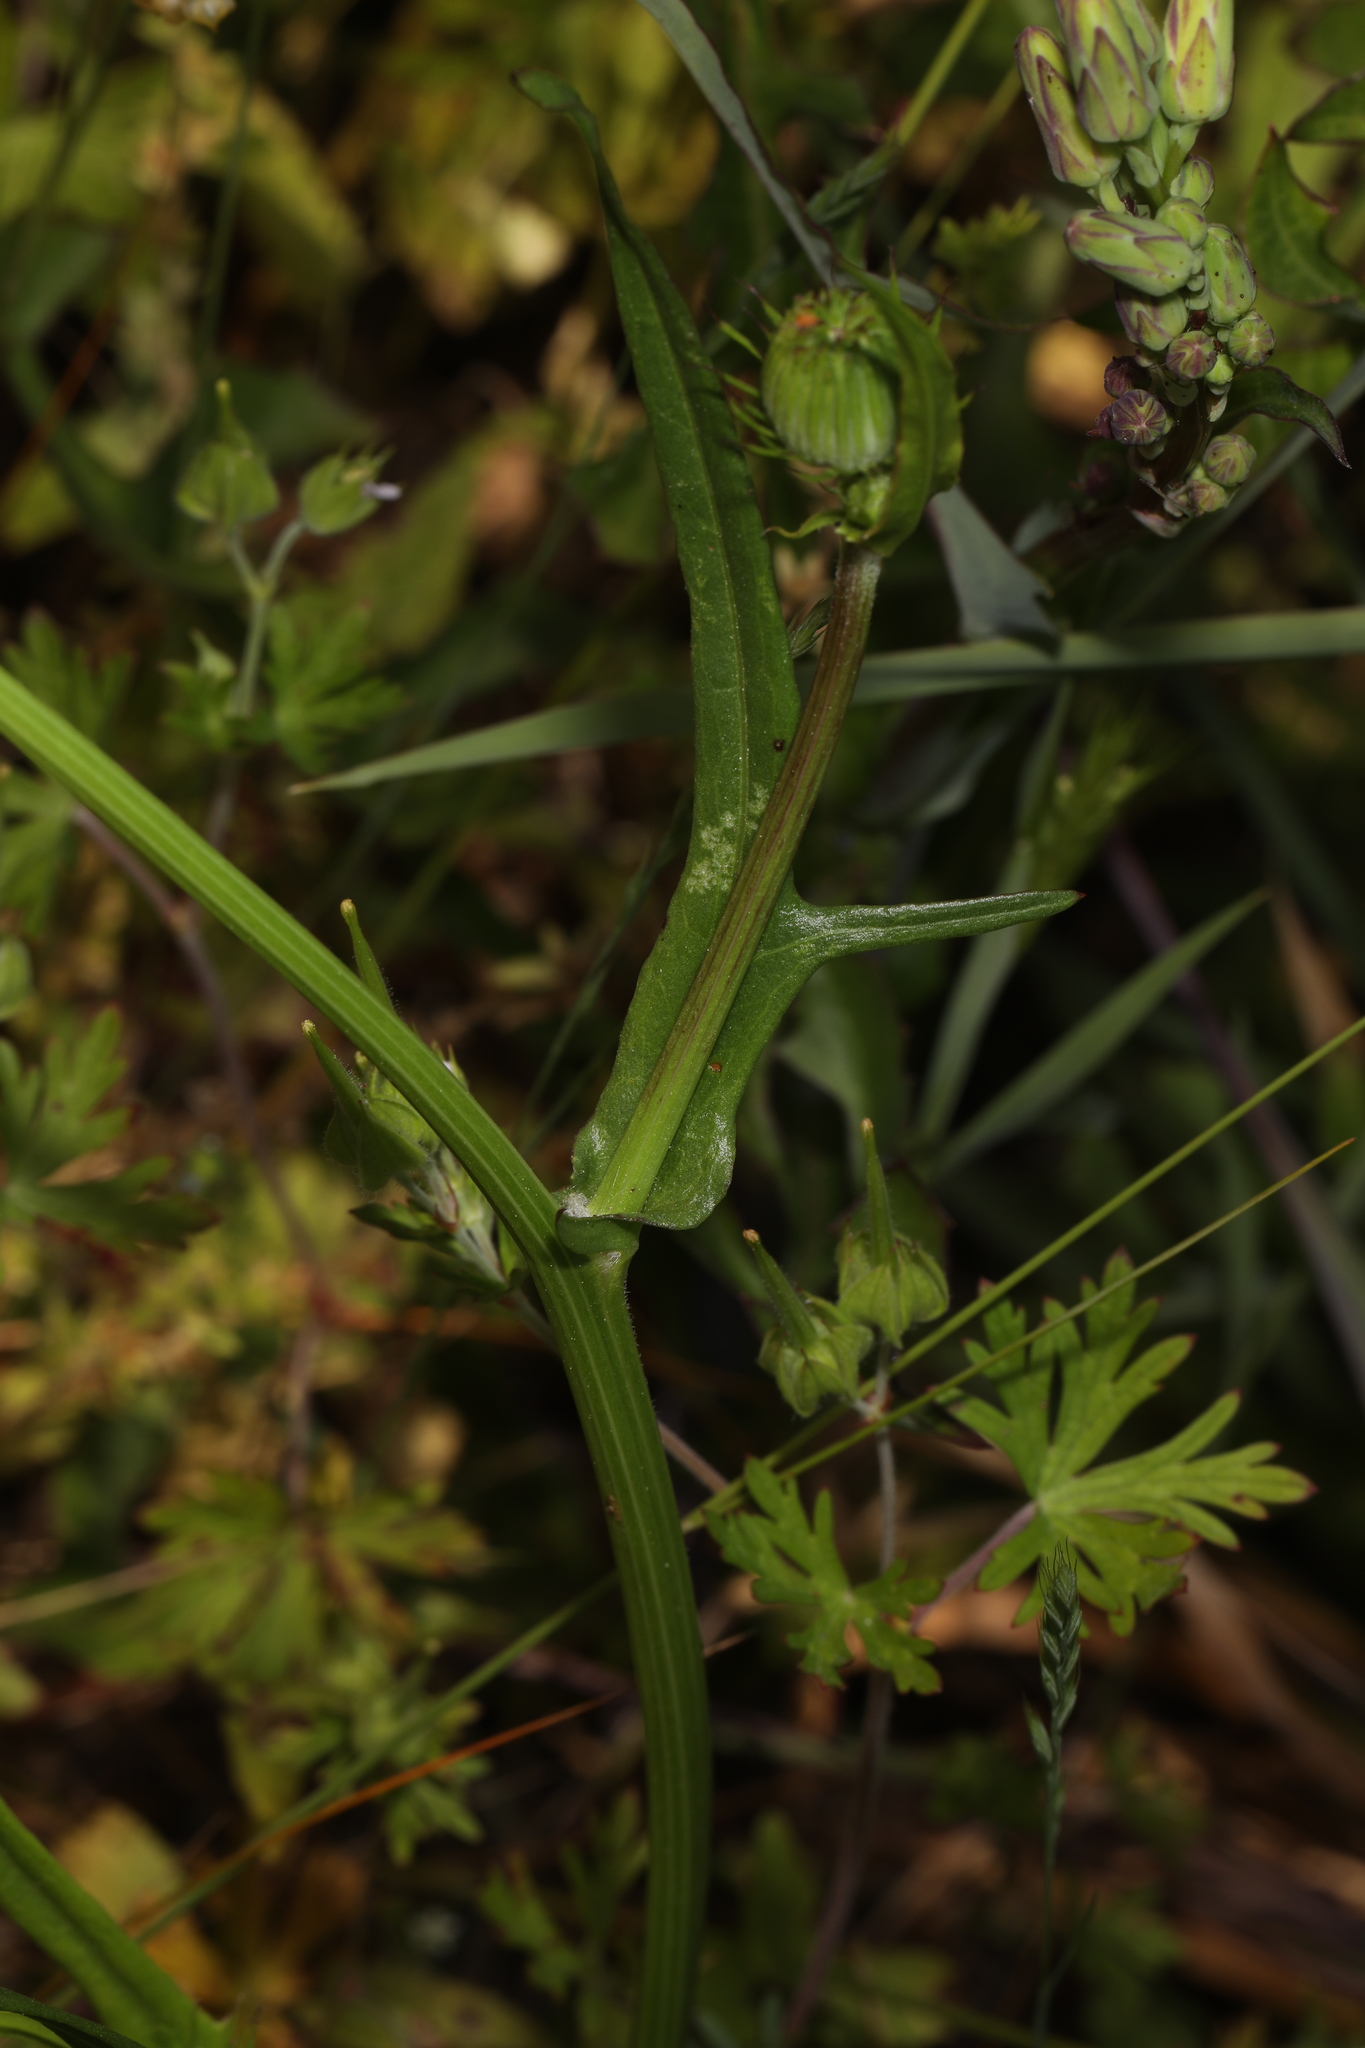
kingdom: Plantae
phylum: Tracheophyta
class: Magnoliopsida
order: Asterales
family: Asteraceae
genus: Pyrrhopappus
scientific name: Pyrrhopappus carolinianus
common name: Carolina desert-chicory
